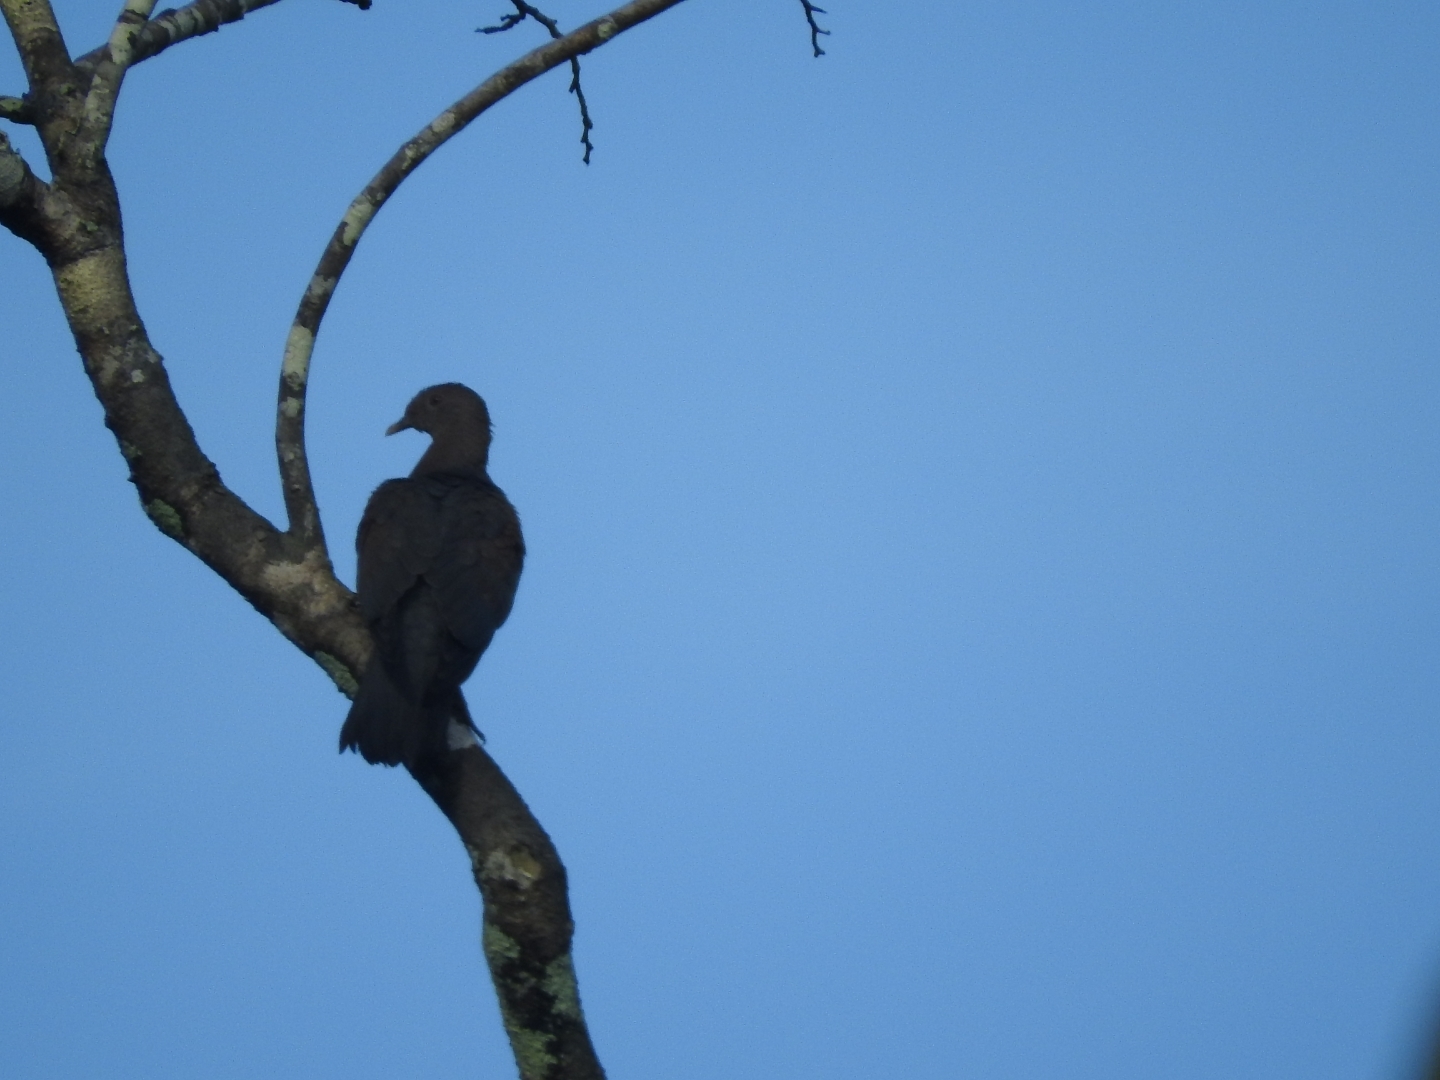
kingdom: Animalia
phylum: Chordata
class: Aves
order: Columbiformes
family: Columbidae
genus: Patagioenas
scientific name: Patagioenas flavirostris
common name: Red-billed pigeon
